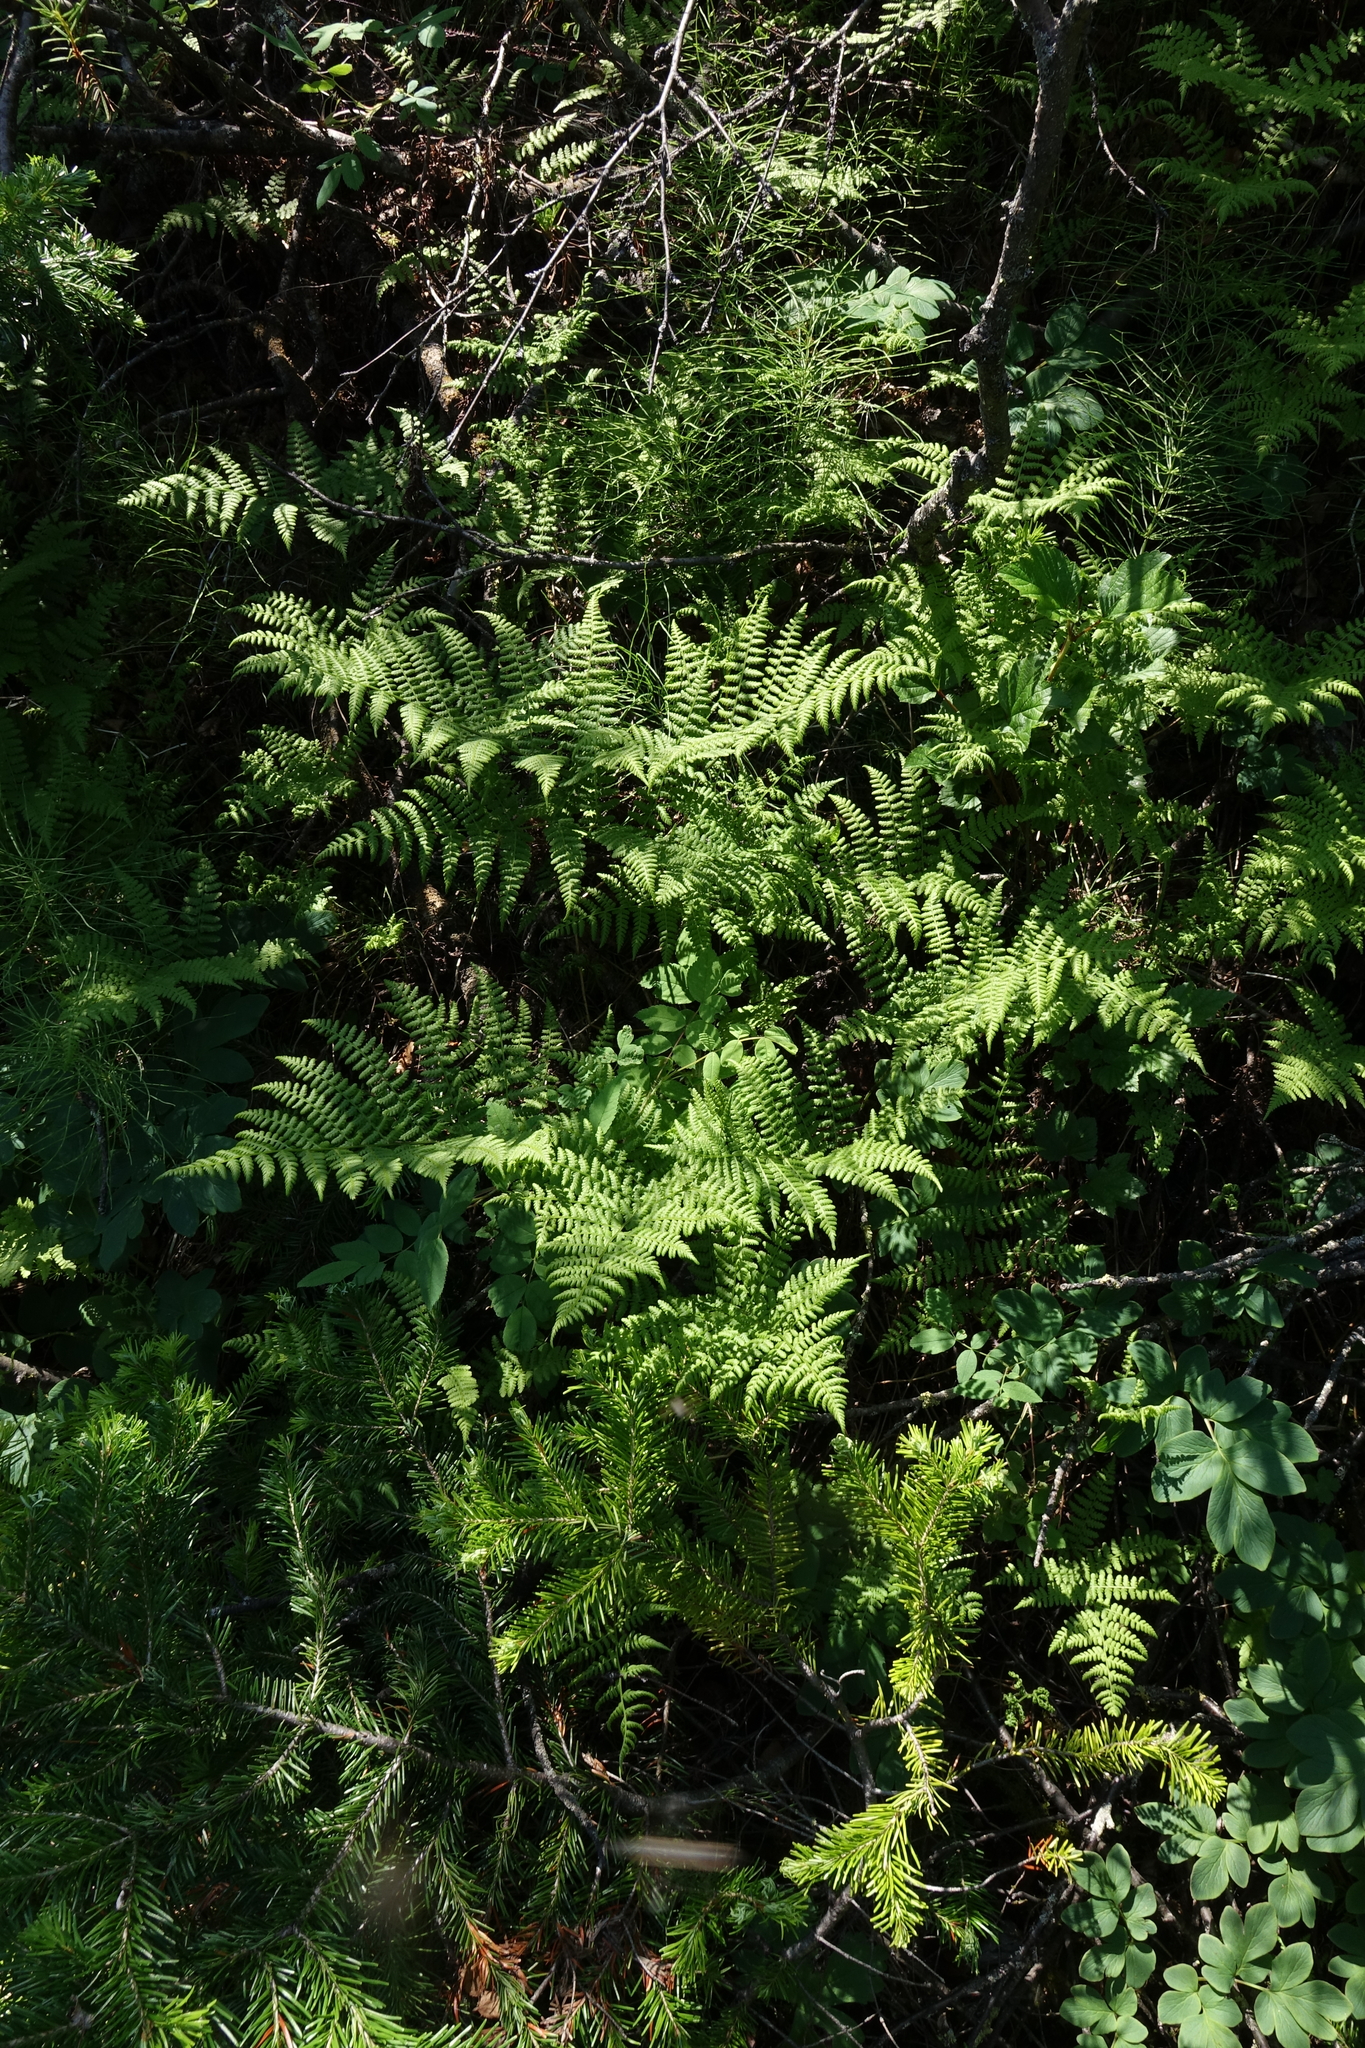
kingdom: Plantae
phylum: Tracheophyta
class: Polypodiopsida
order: Polypodiales
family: Athyriaceae
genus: Diplazium
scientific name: Diplazium sibiricum
